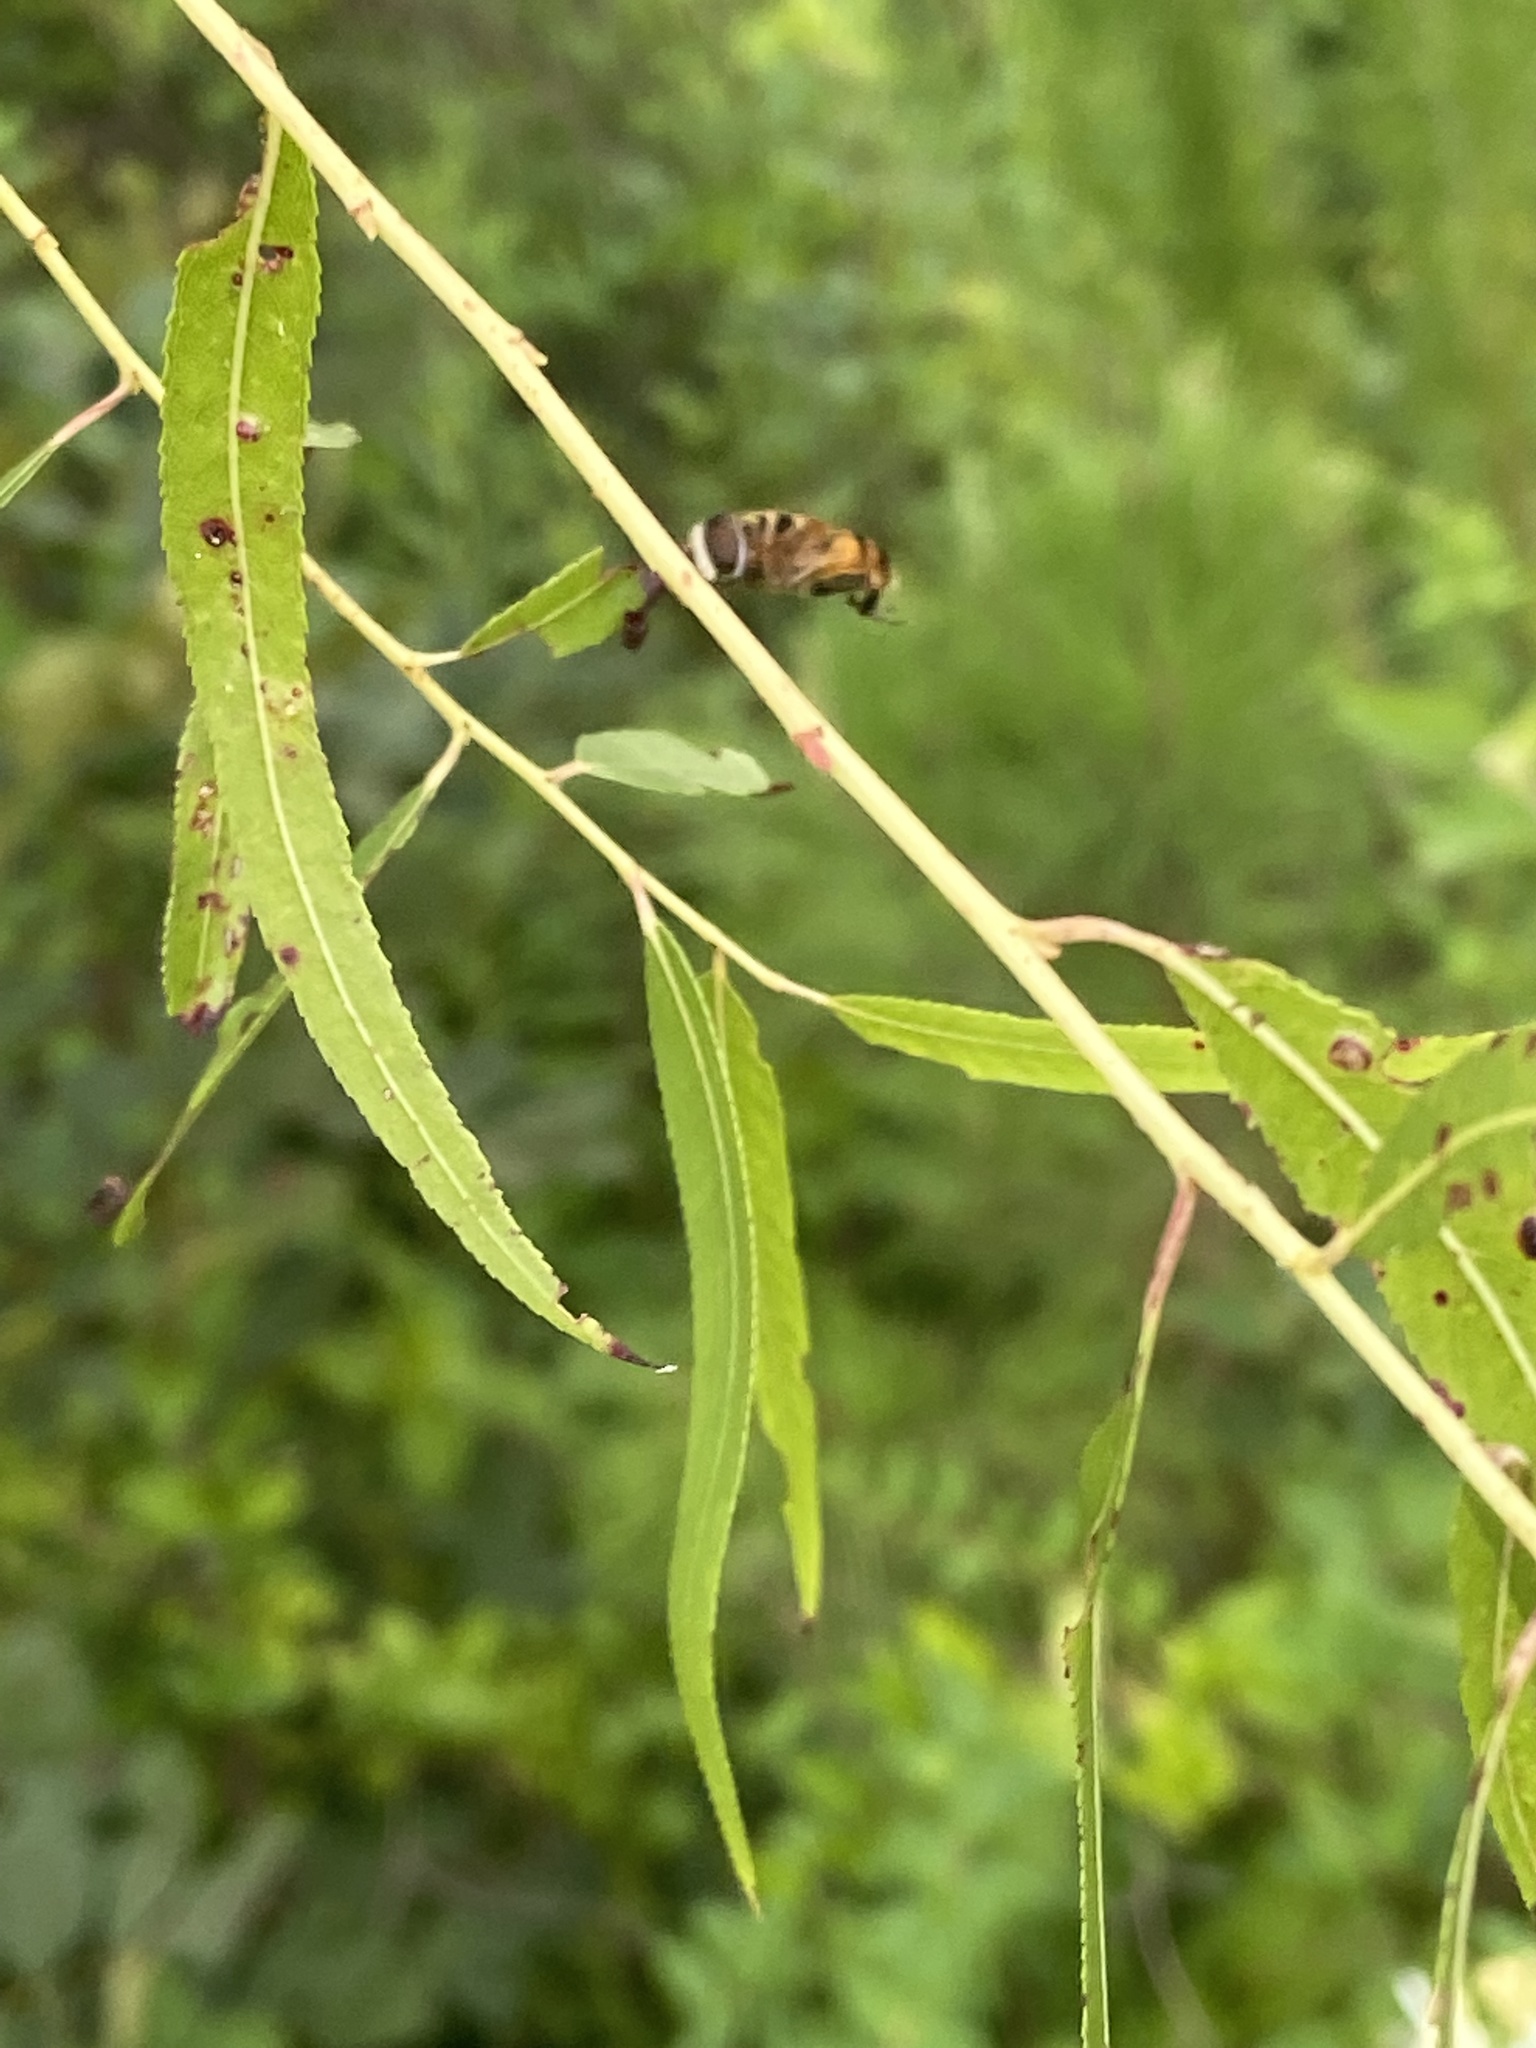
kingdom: Animalia
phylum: Arthropoda
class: Insecta
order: Diptera
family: Syrphidae
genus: Palpada
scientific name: Palpada vinetorum
